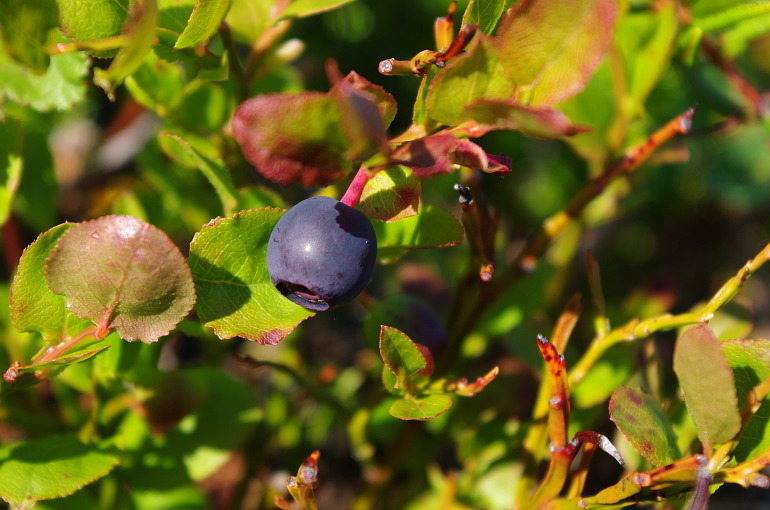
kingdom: Plantae
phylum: Tracheophyta
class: Magnoliopsida
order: Ericales
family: Ericaceae
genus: Vaccinium
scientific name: Vaccinium myrtillus
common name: Bilberry
